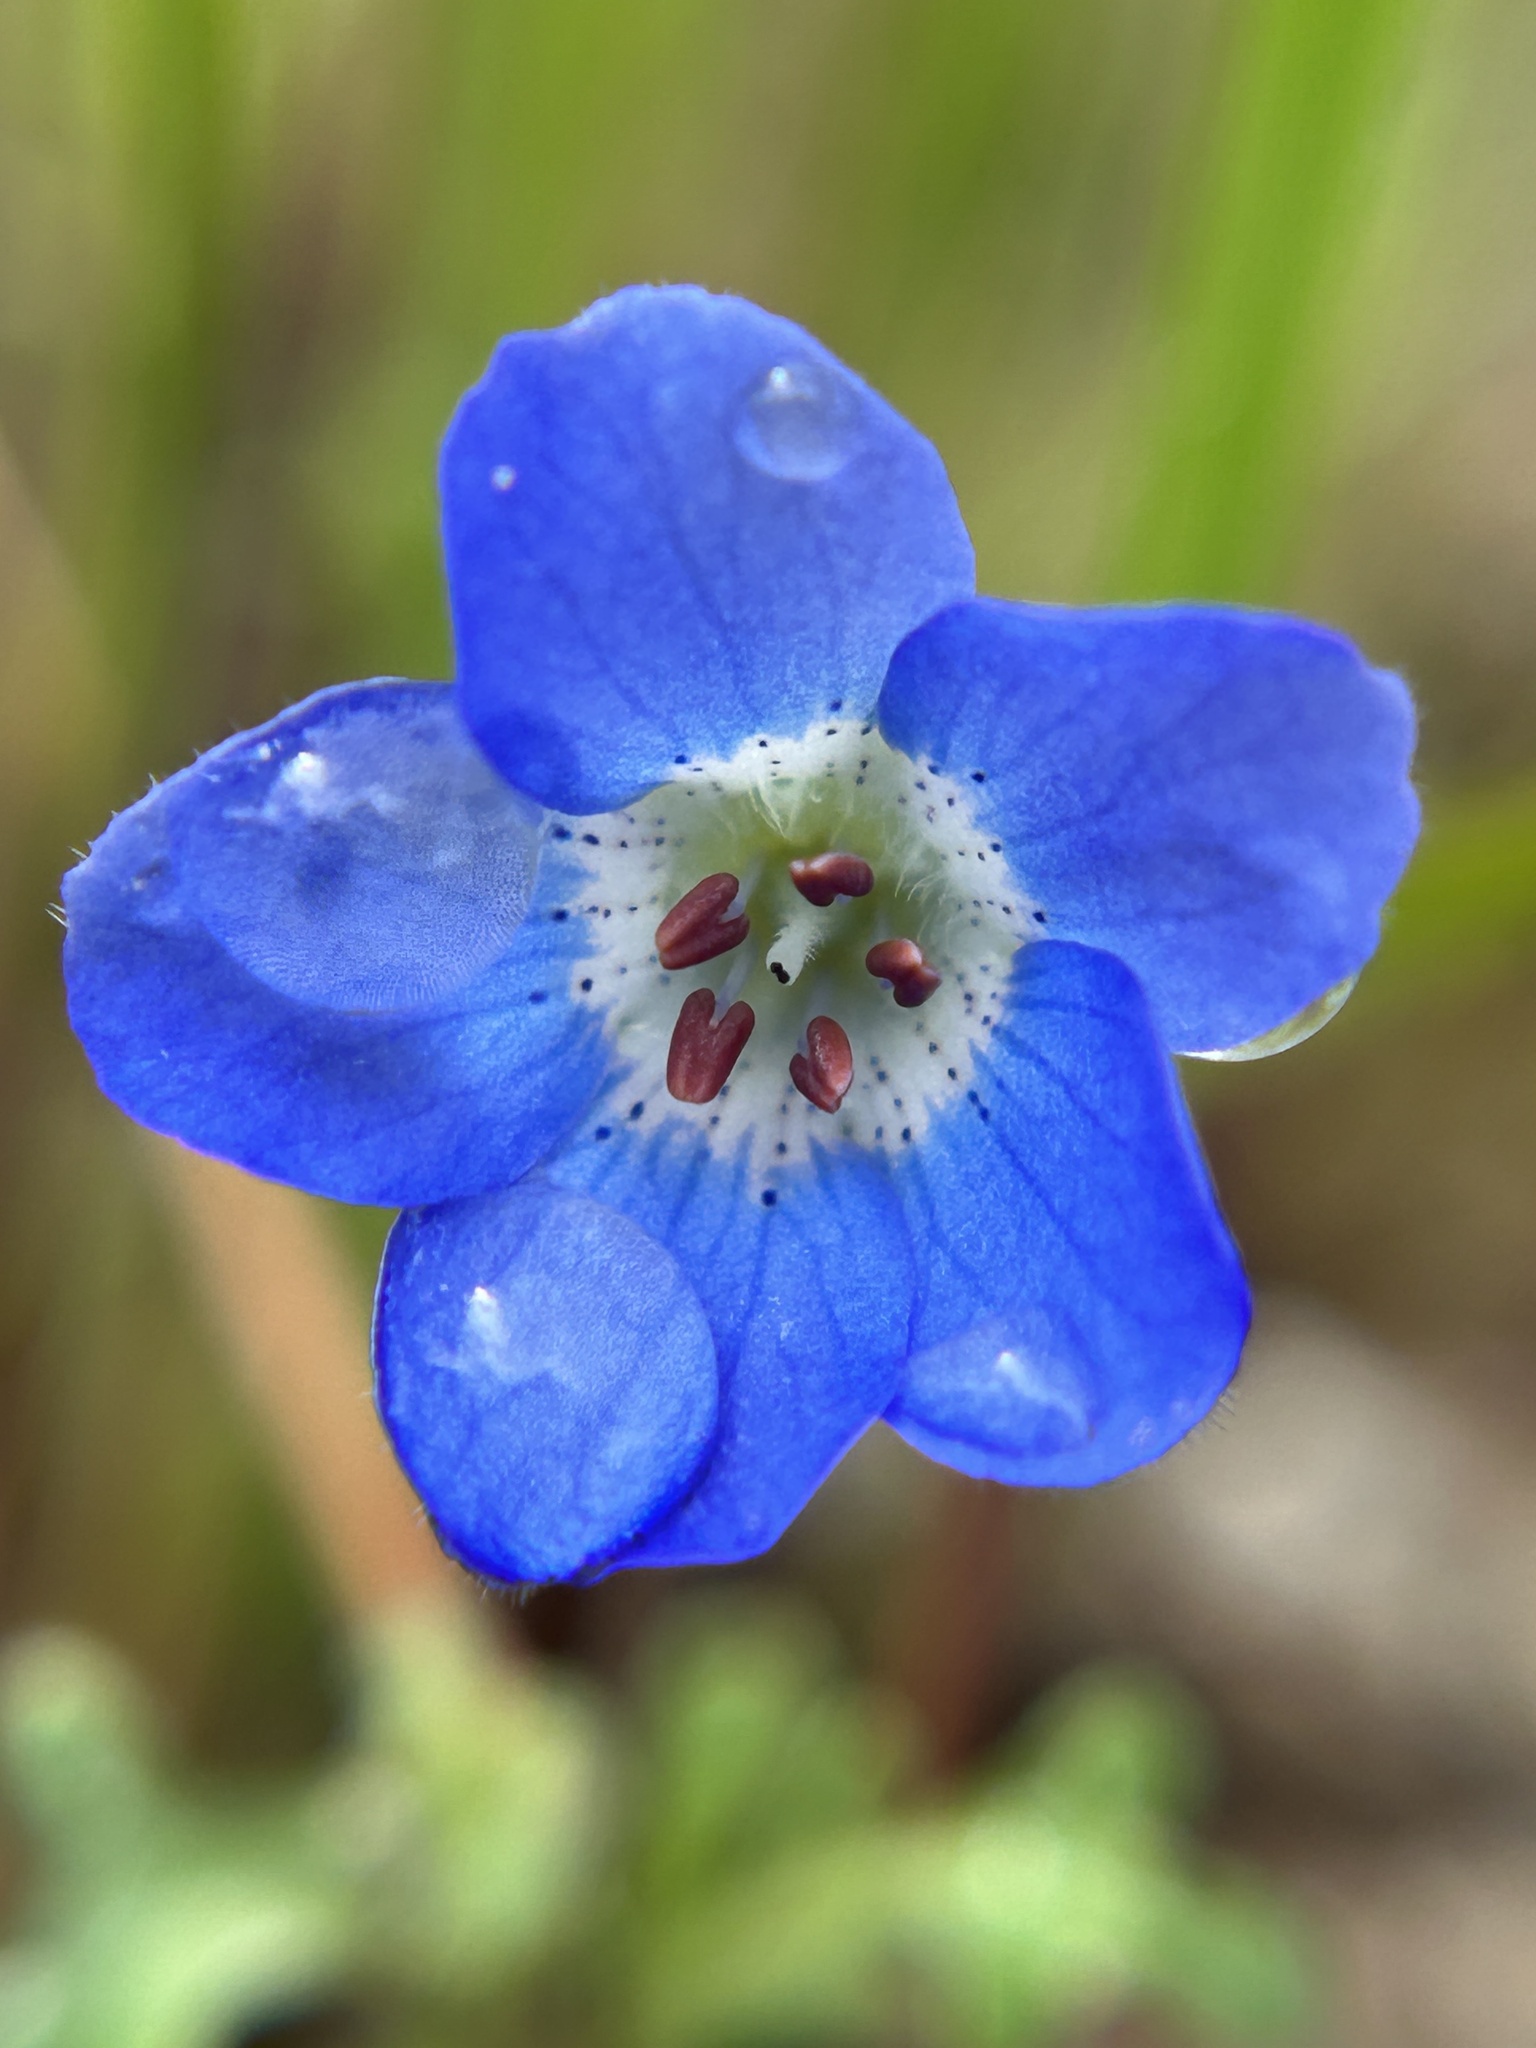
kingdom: Plantae
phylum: Tracheophyta
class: Magnoliopsida
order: Boraginales
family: Hydrophyllaceae
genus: Nemophila
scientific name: Nemophila menziesii
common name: Baby's-blue-eyes
